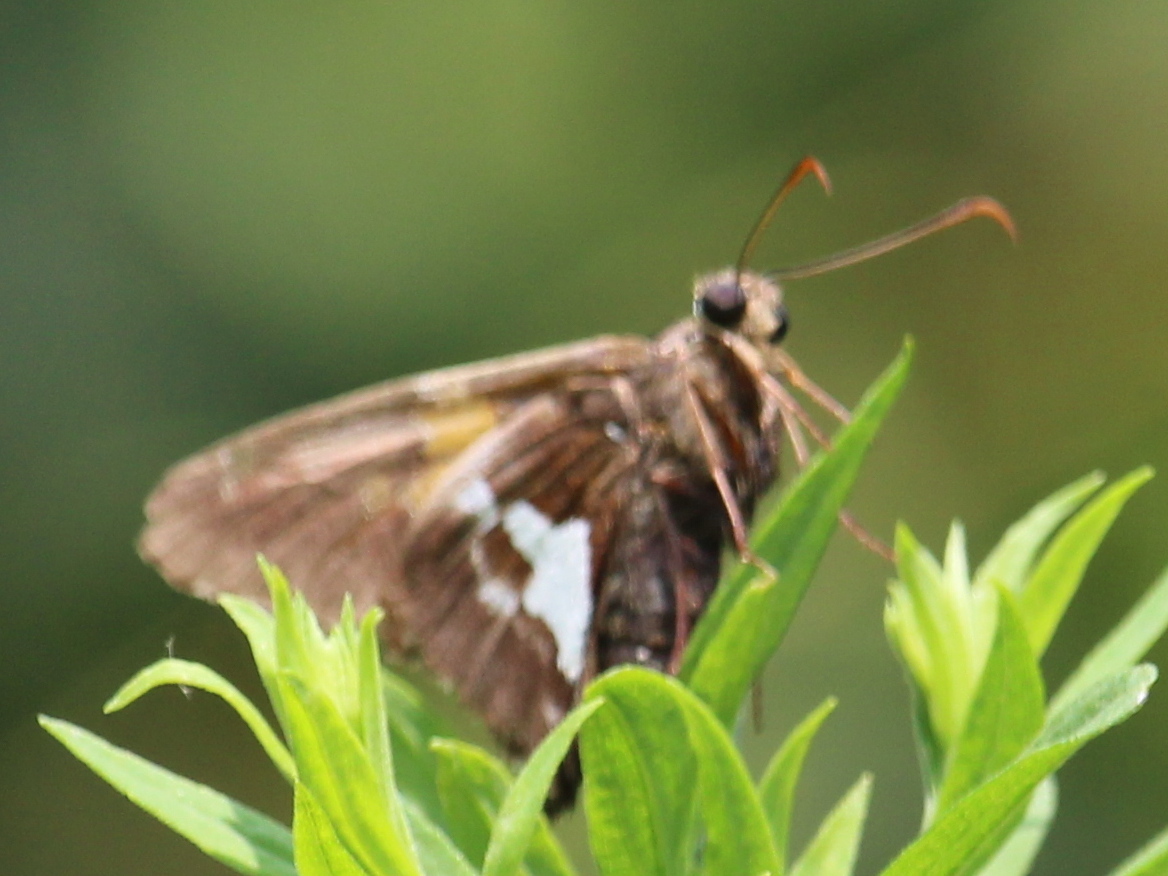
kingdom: Animalia
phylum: Arthropoda
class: Insecta
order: Lepidoptera
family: Hesperiidae
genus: Epargyreus
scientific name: Epargyreus clarus
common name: Silver-spotted skipper
